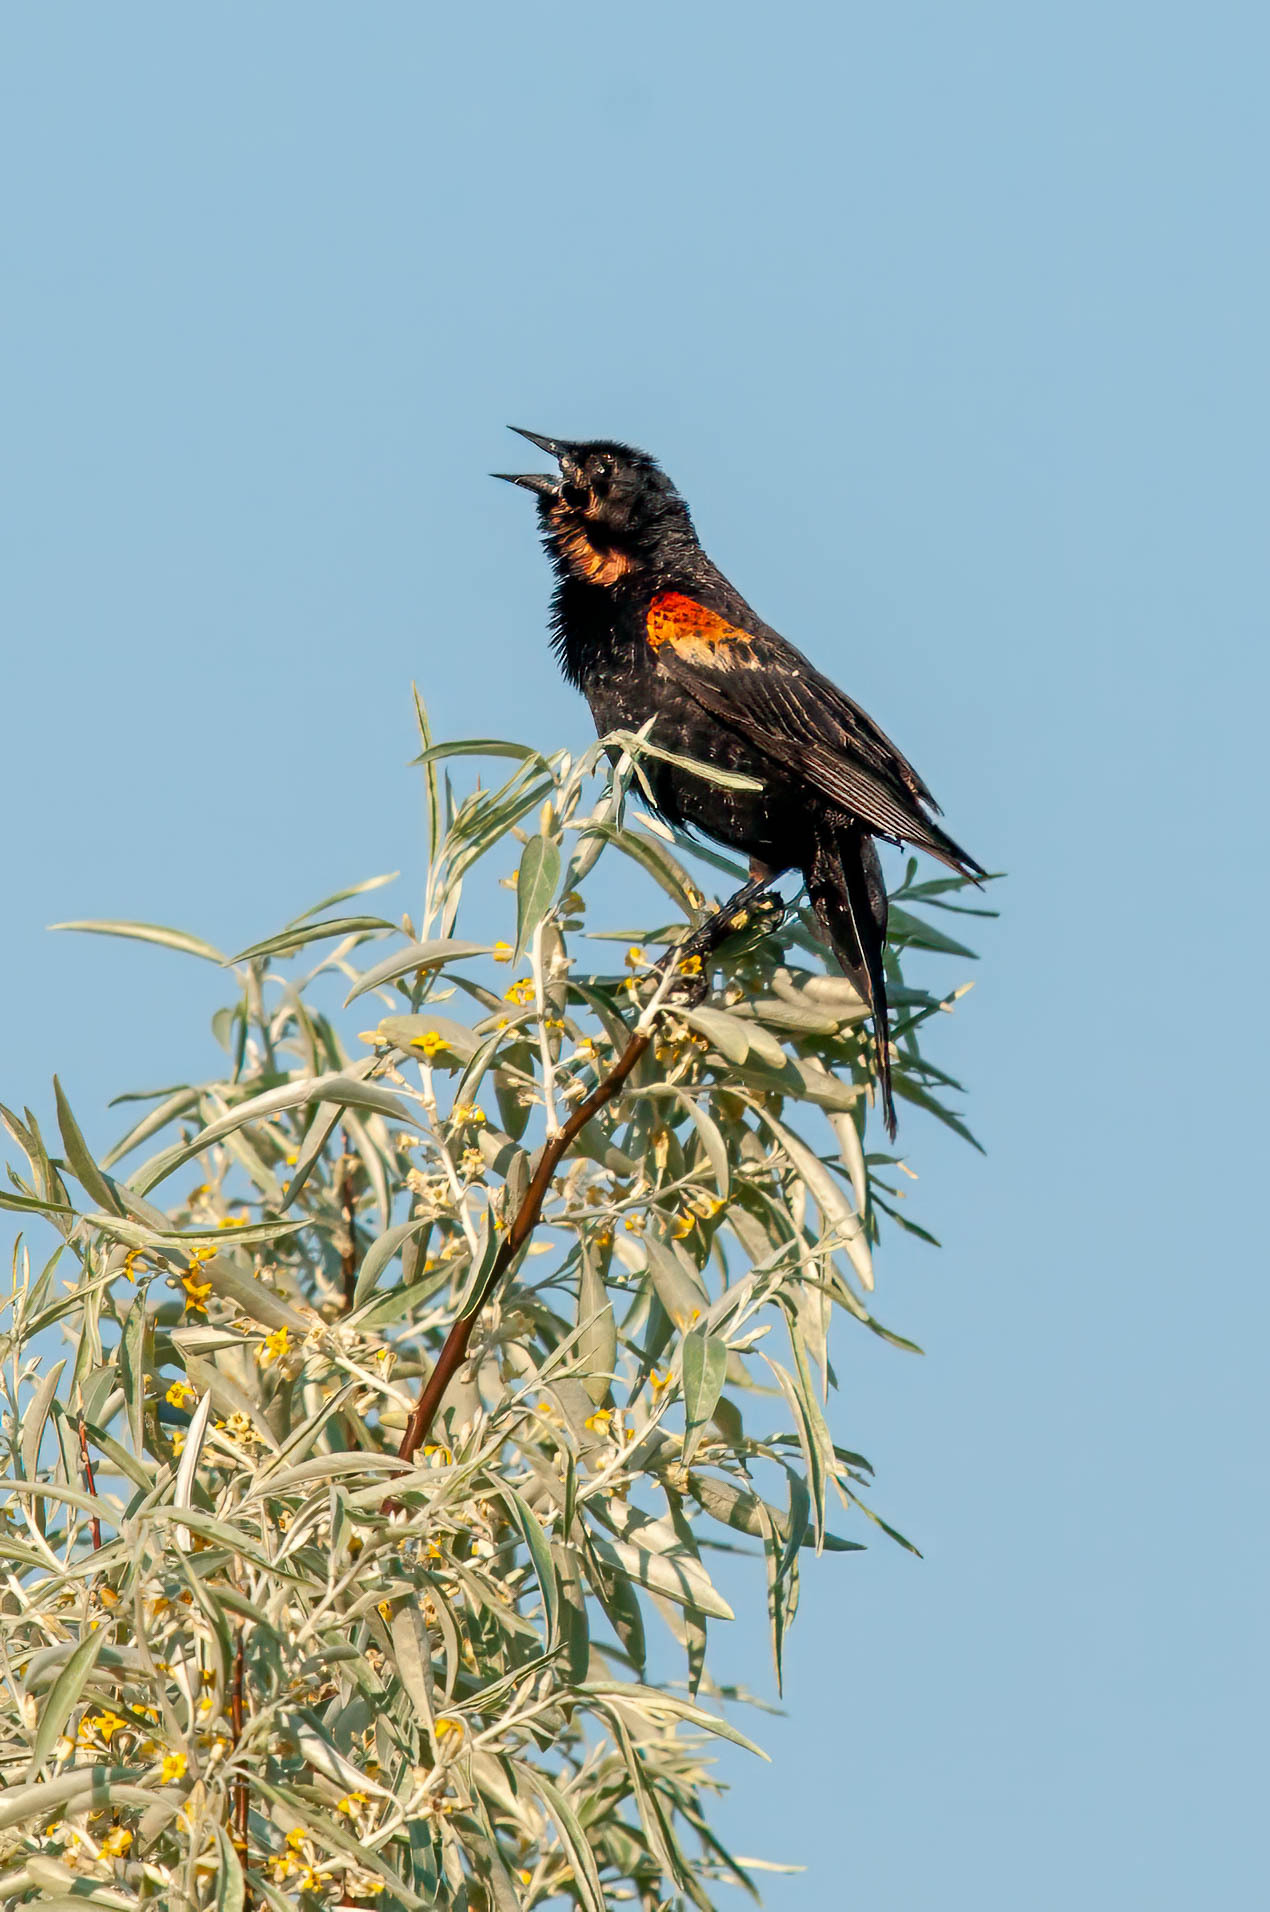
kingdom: Animalia
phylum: Chordata
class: Aves
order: Passeriformes
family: Icteridae
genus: Agelaius
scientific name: Agelaius phoeniceus
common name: Red-winged blackbird
